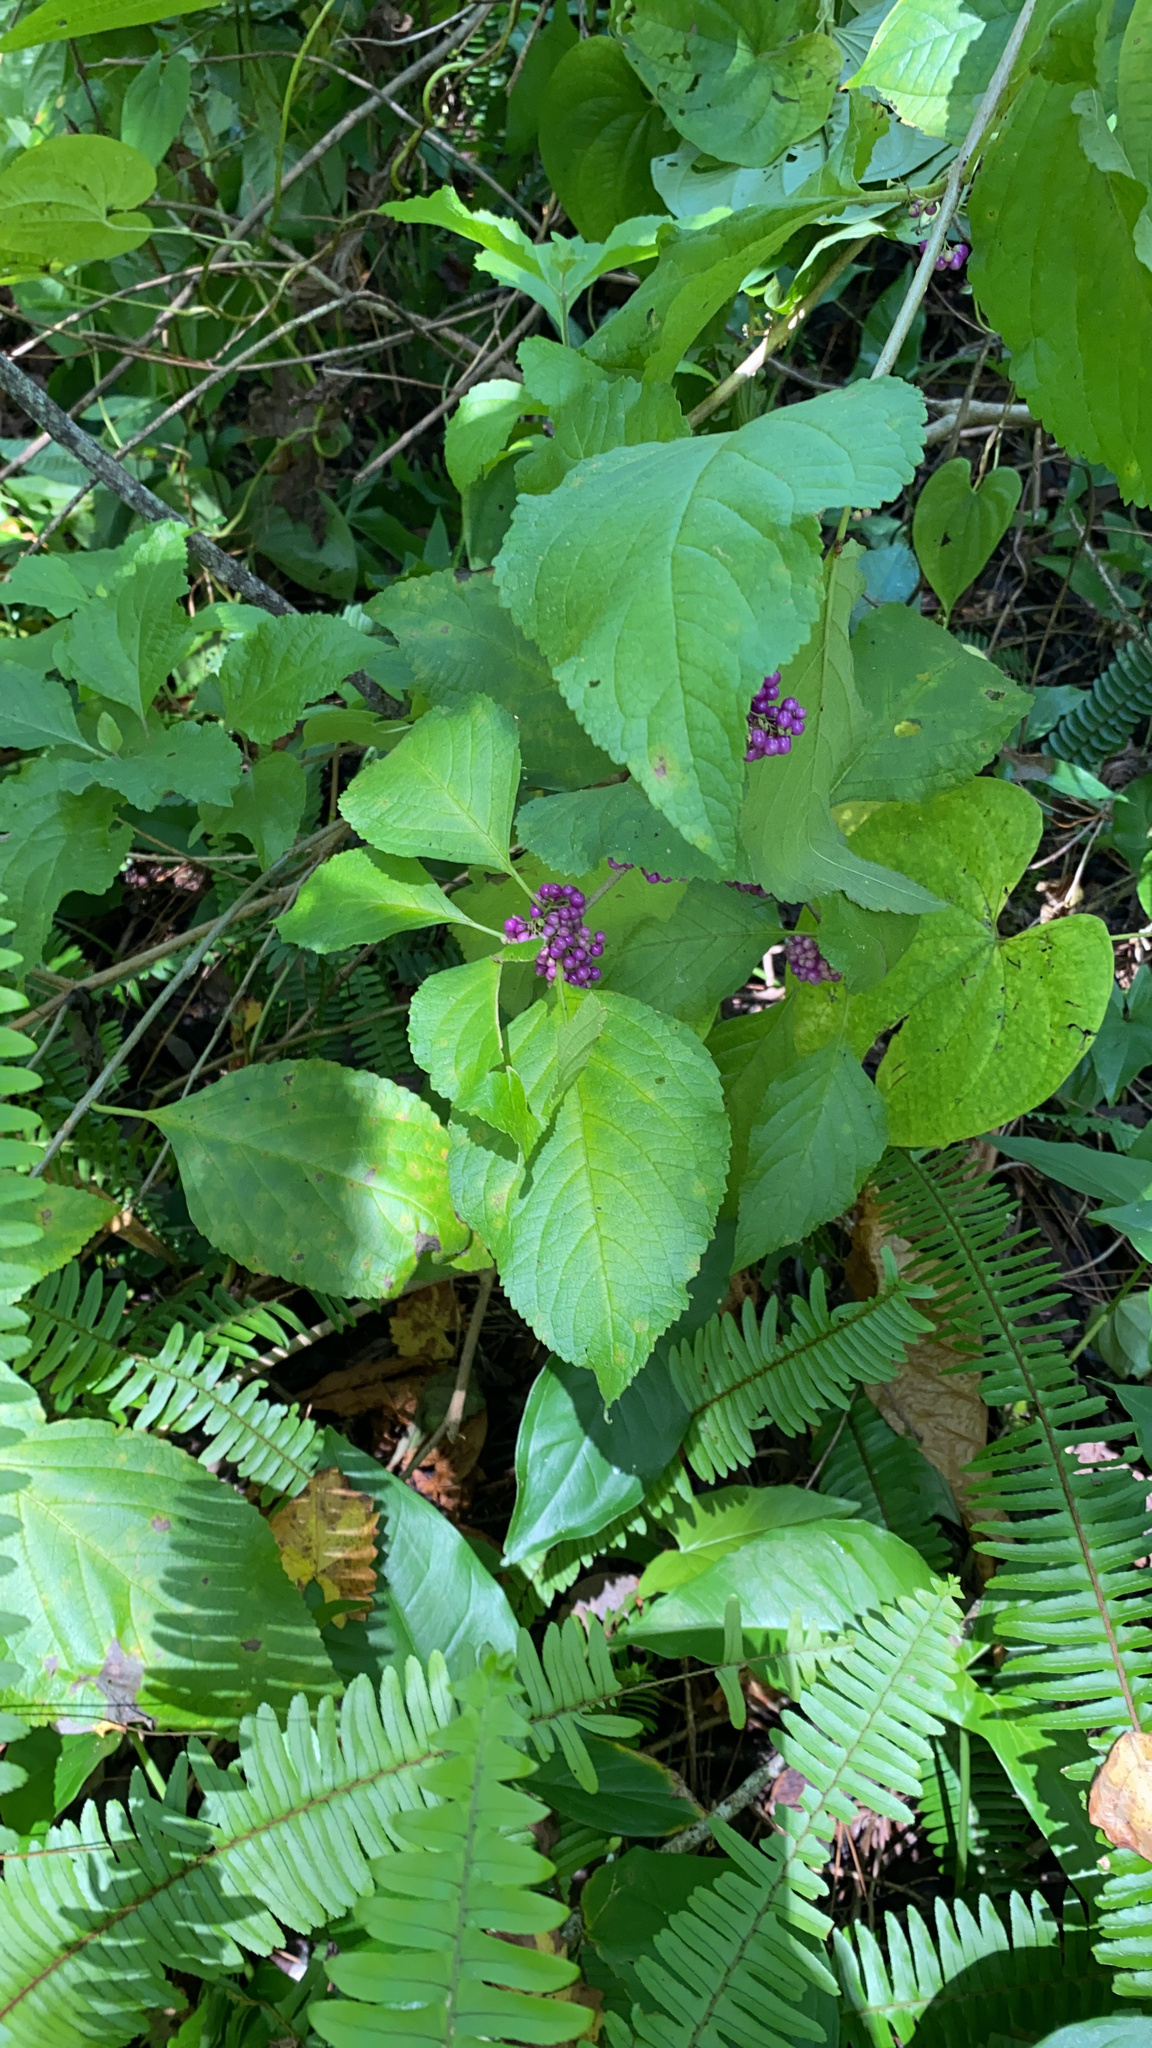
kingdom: Plantae
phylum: Tracheophyta
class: Magnoliopsida
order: Lamiales
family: Lamiaceae
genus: Callicarpa
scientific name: Callicarpa americana
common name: American beautyberry
